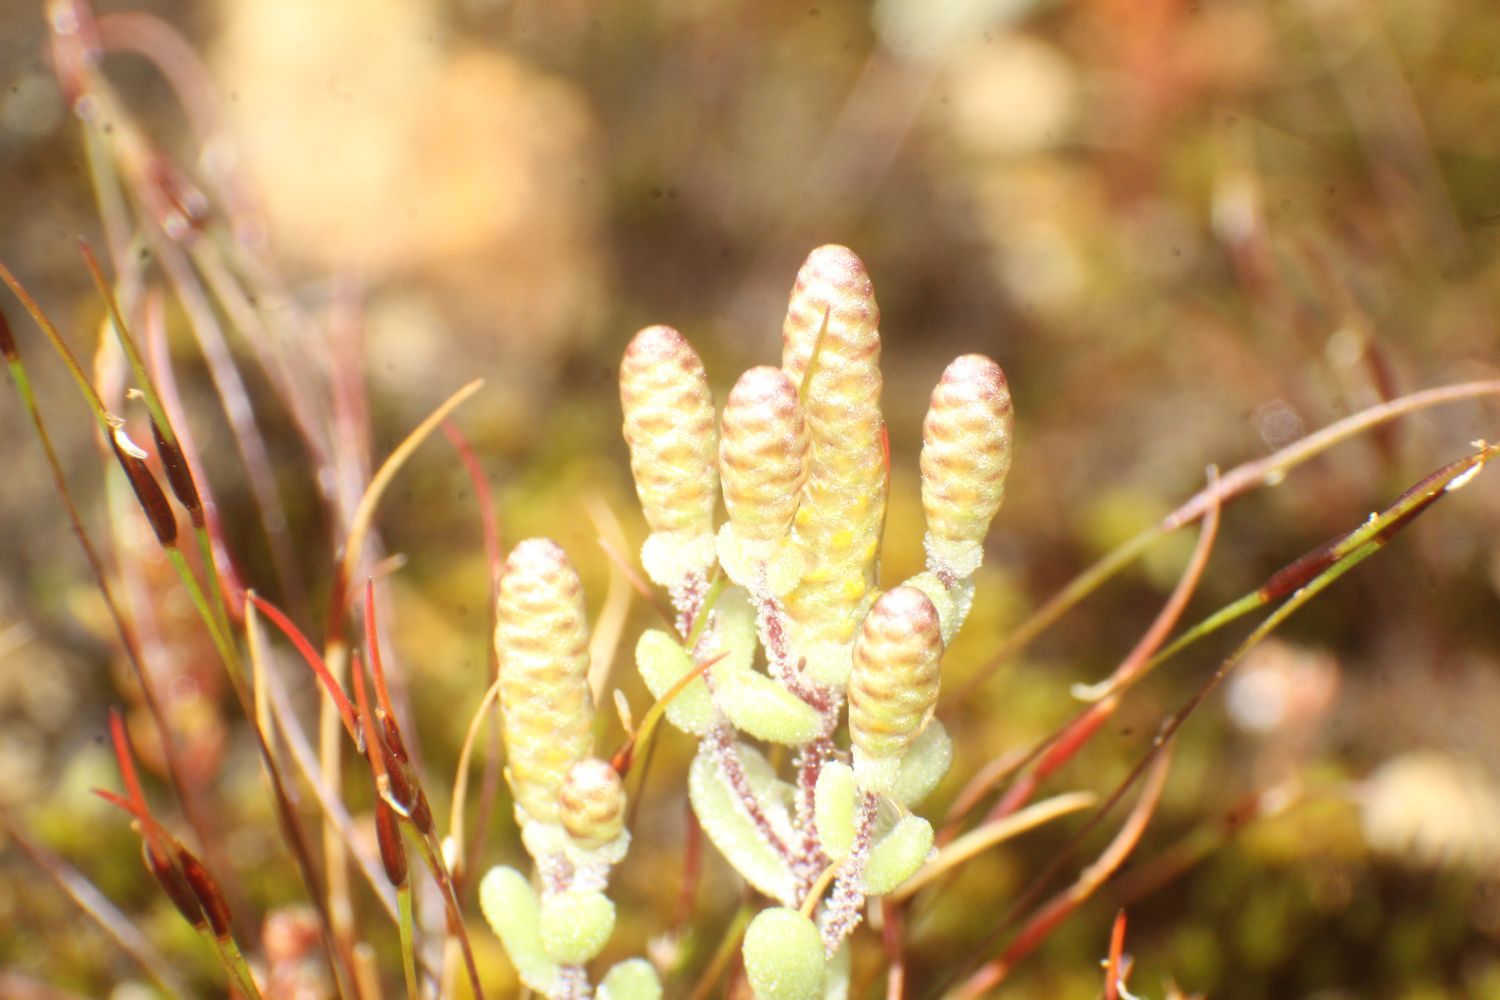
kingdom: Plantae
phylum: Tracheophyta
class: Magnoliopsida
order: Asterales
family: Asteraceae
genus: Gnephosis
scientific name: Gnephosis drummondii
